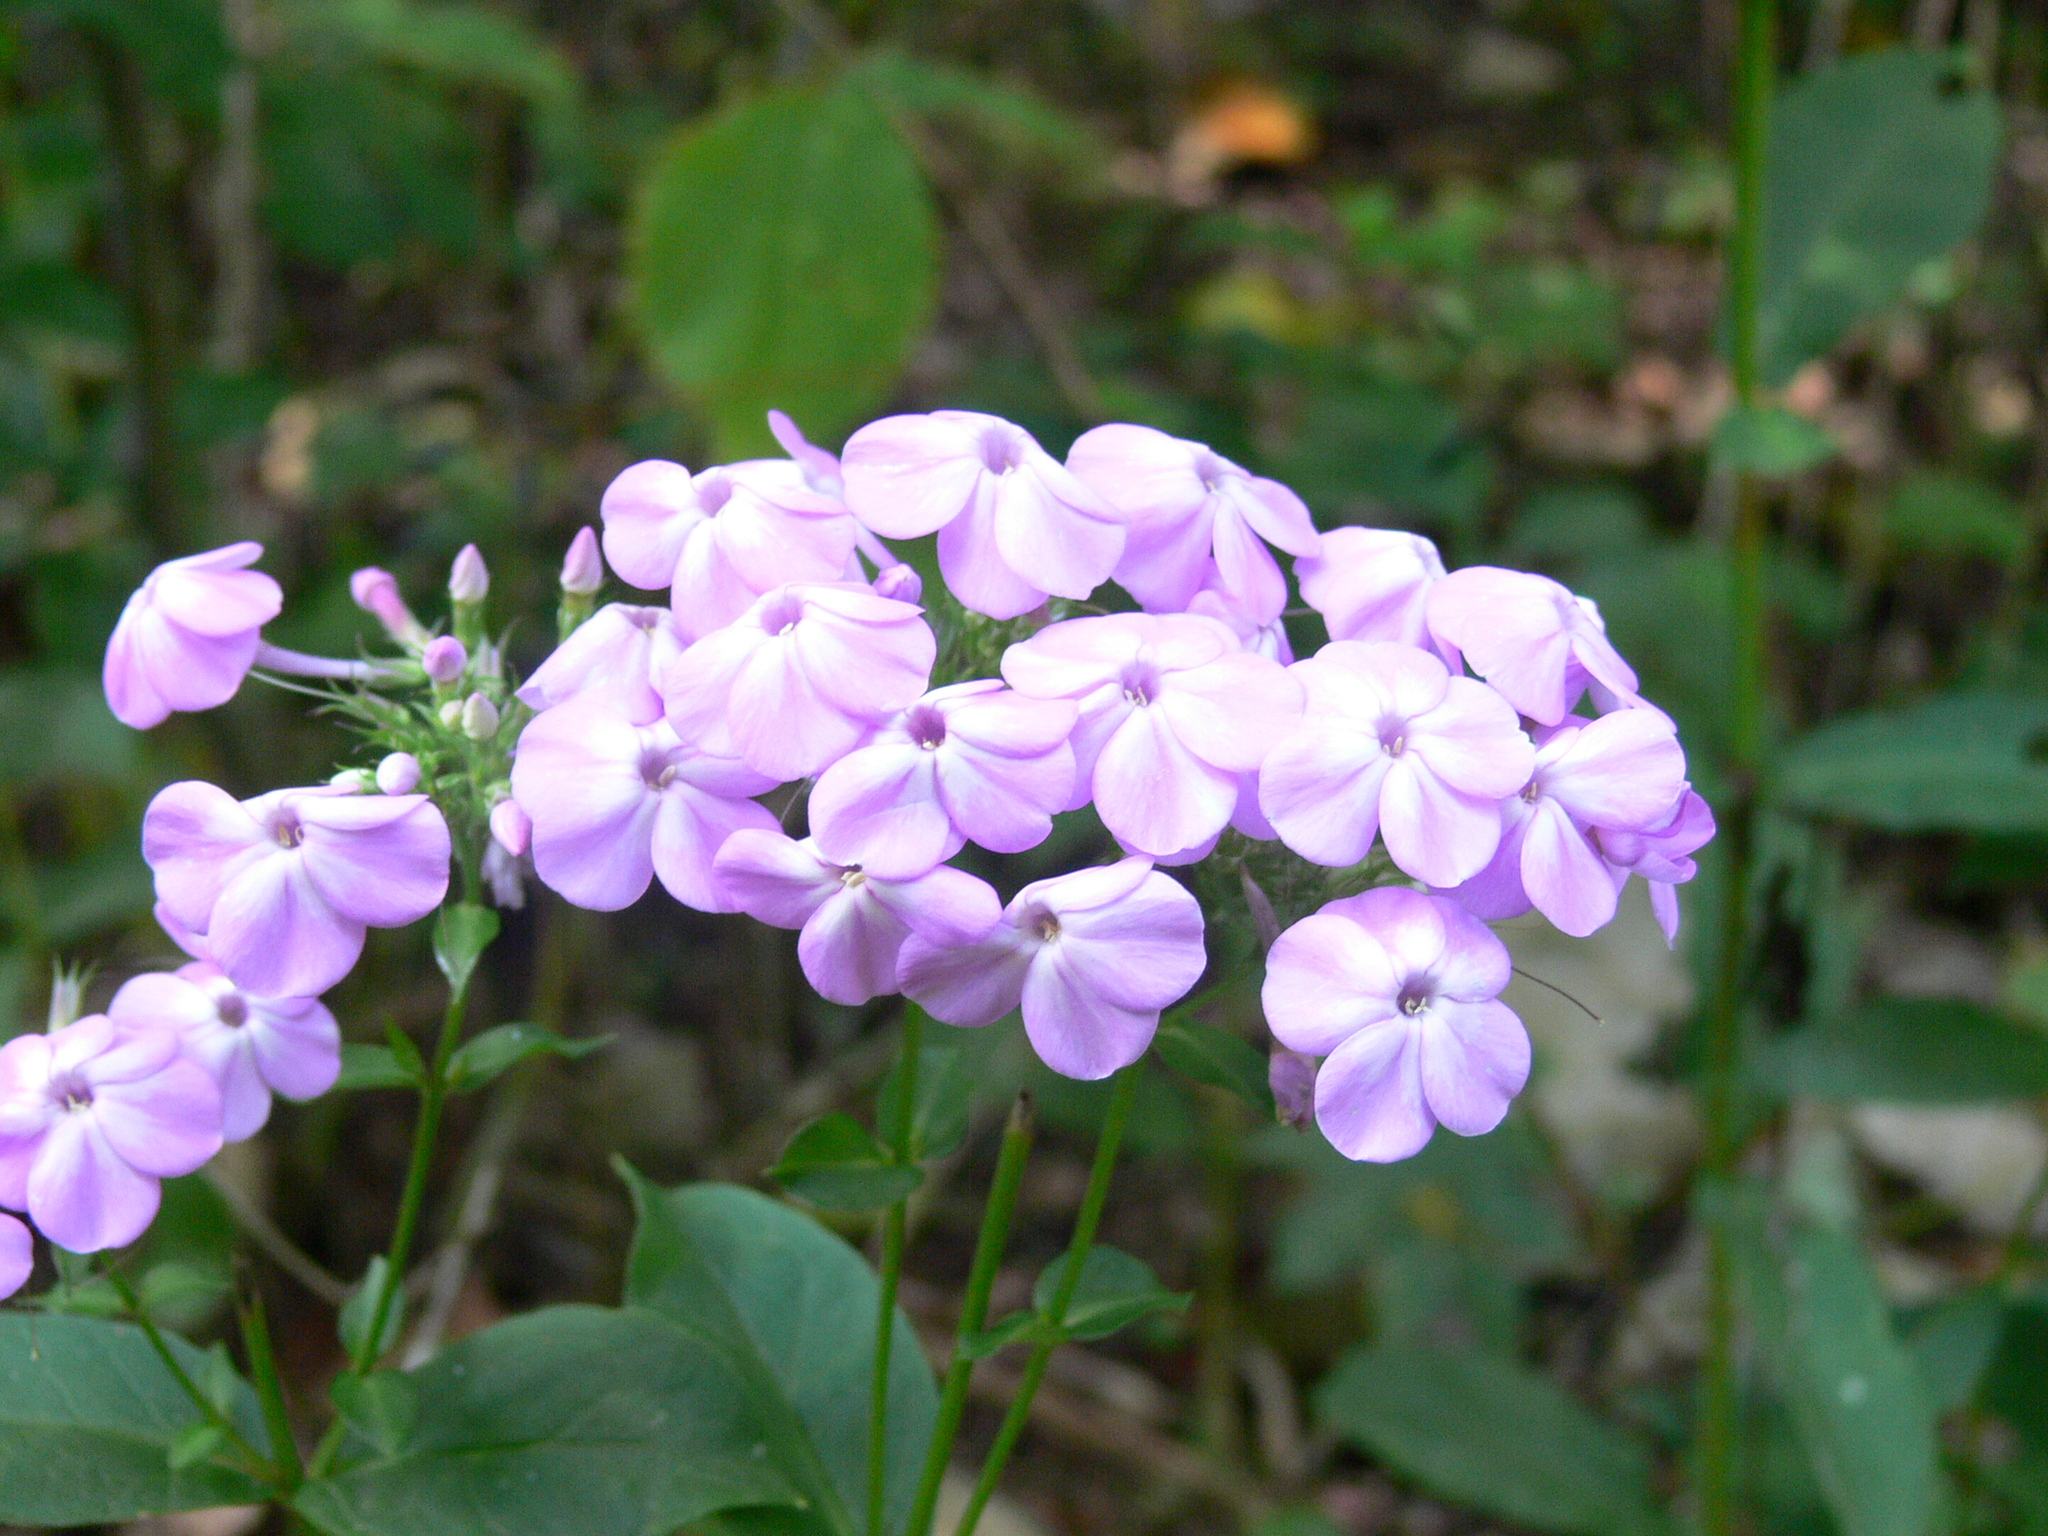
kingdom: Plantae
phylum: Tracheophyta
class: Magnoliopsida
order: Ericales
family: Polemoniaceae
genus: Phlox
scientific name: Phlox paniculata
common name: Fall phlox
